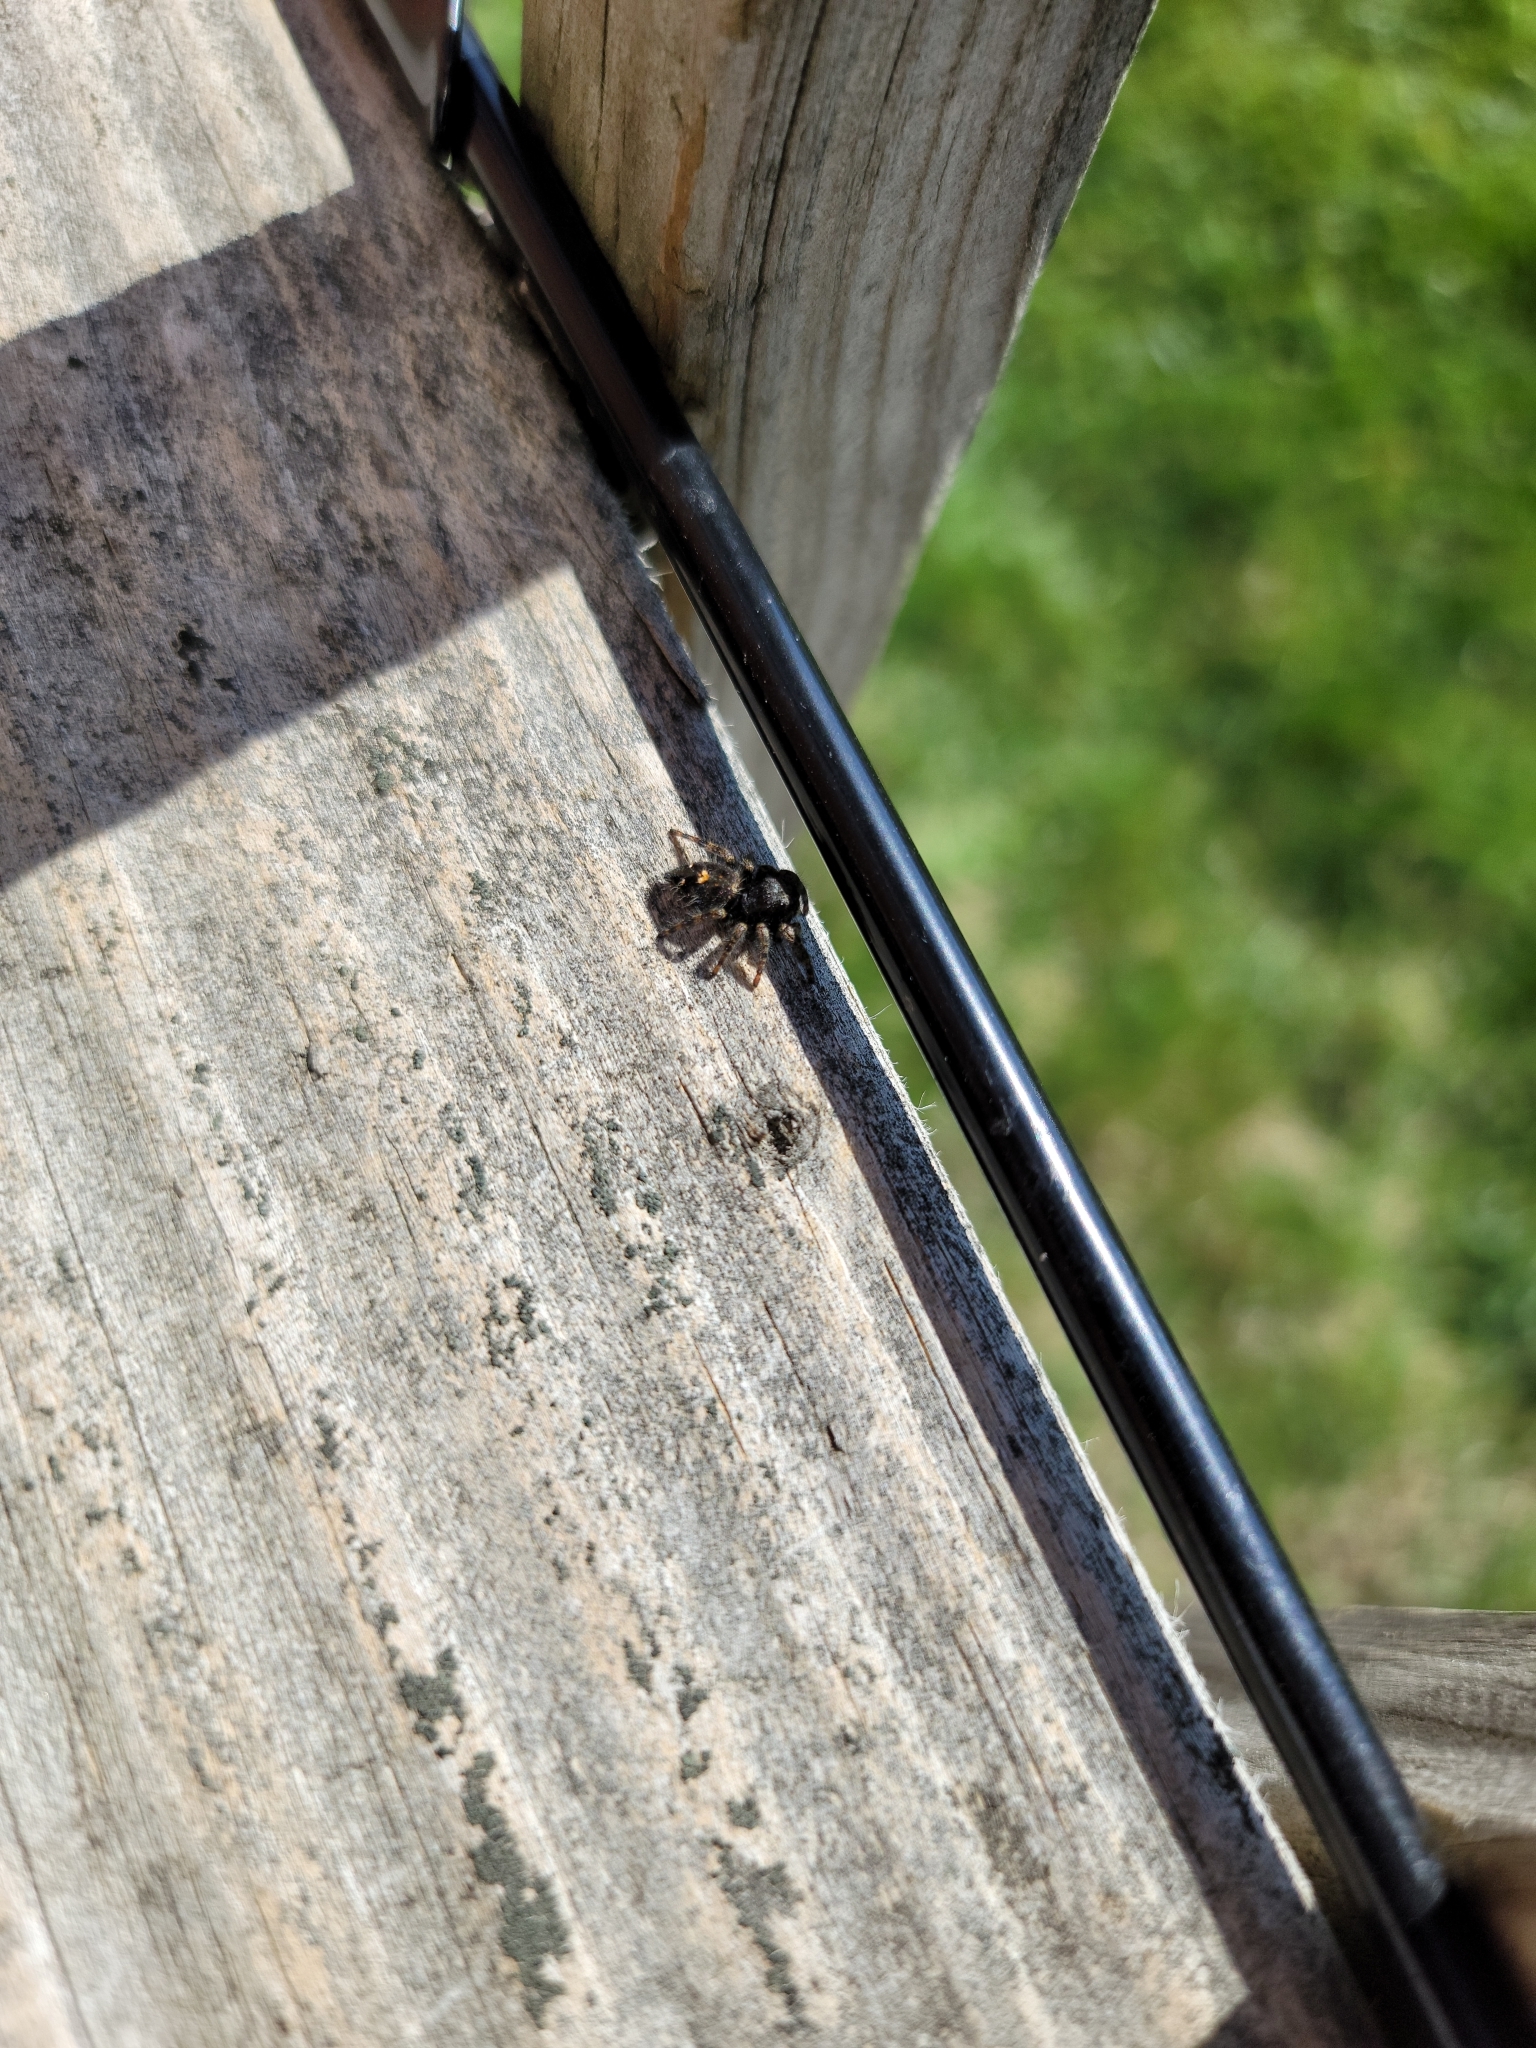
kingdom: Animalia
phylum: Arthropoda
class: Arachnida
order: Araneae
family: Salticidae
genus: Phidippus
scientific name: Phidippus audax
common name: Bold jumper
